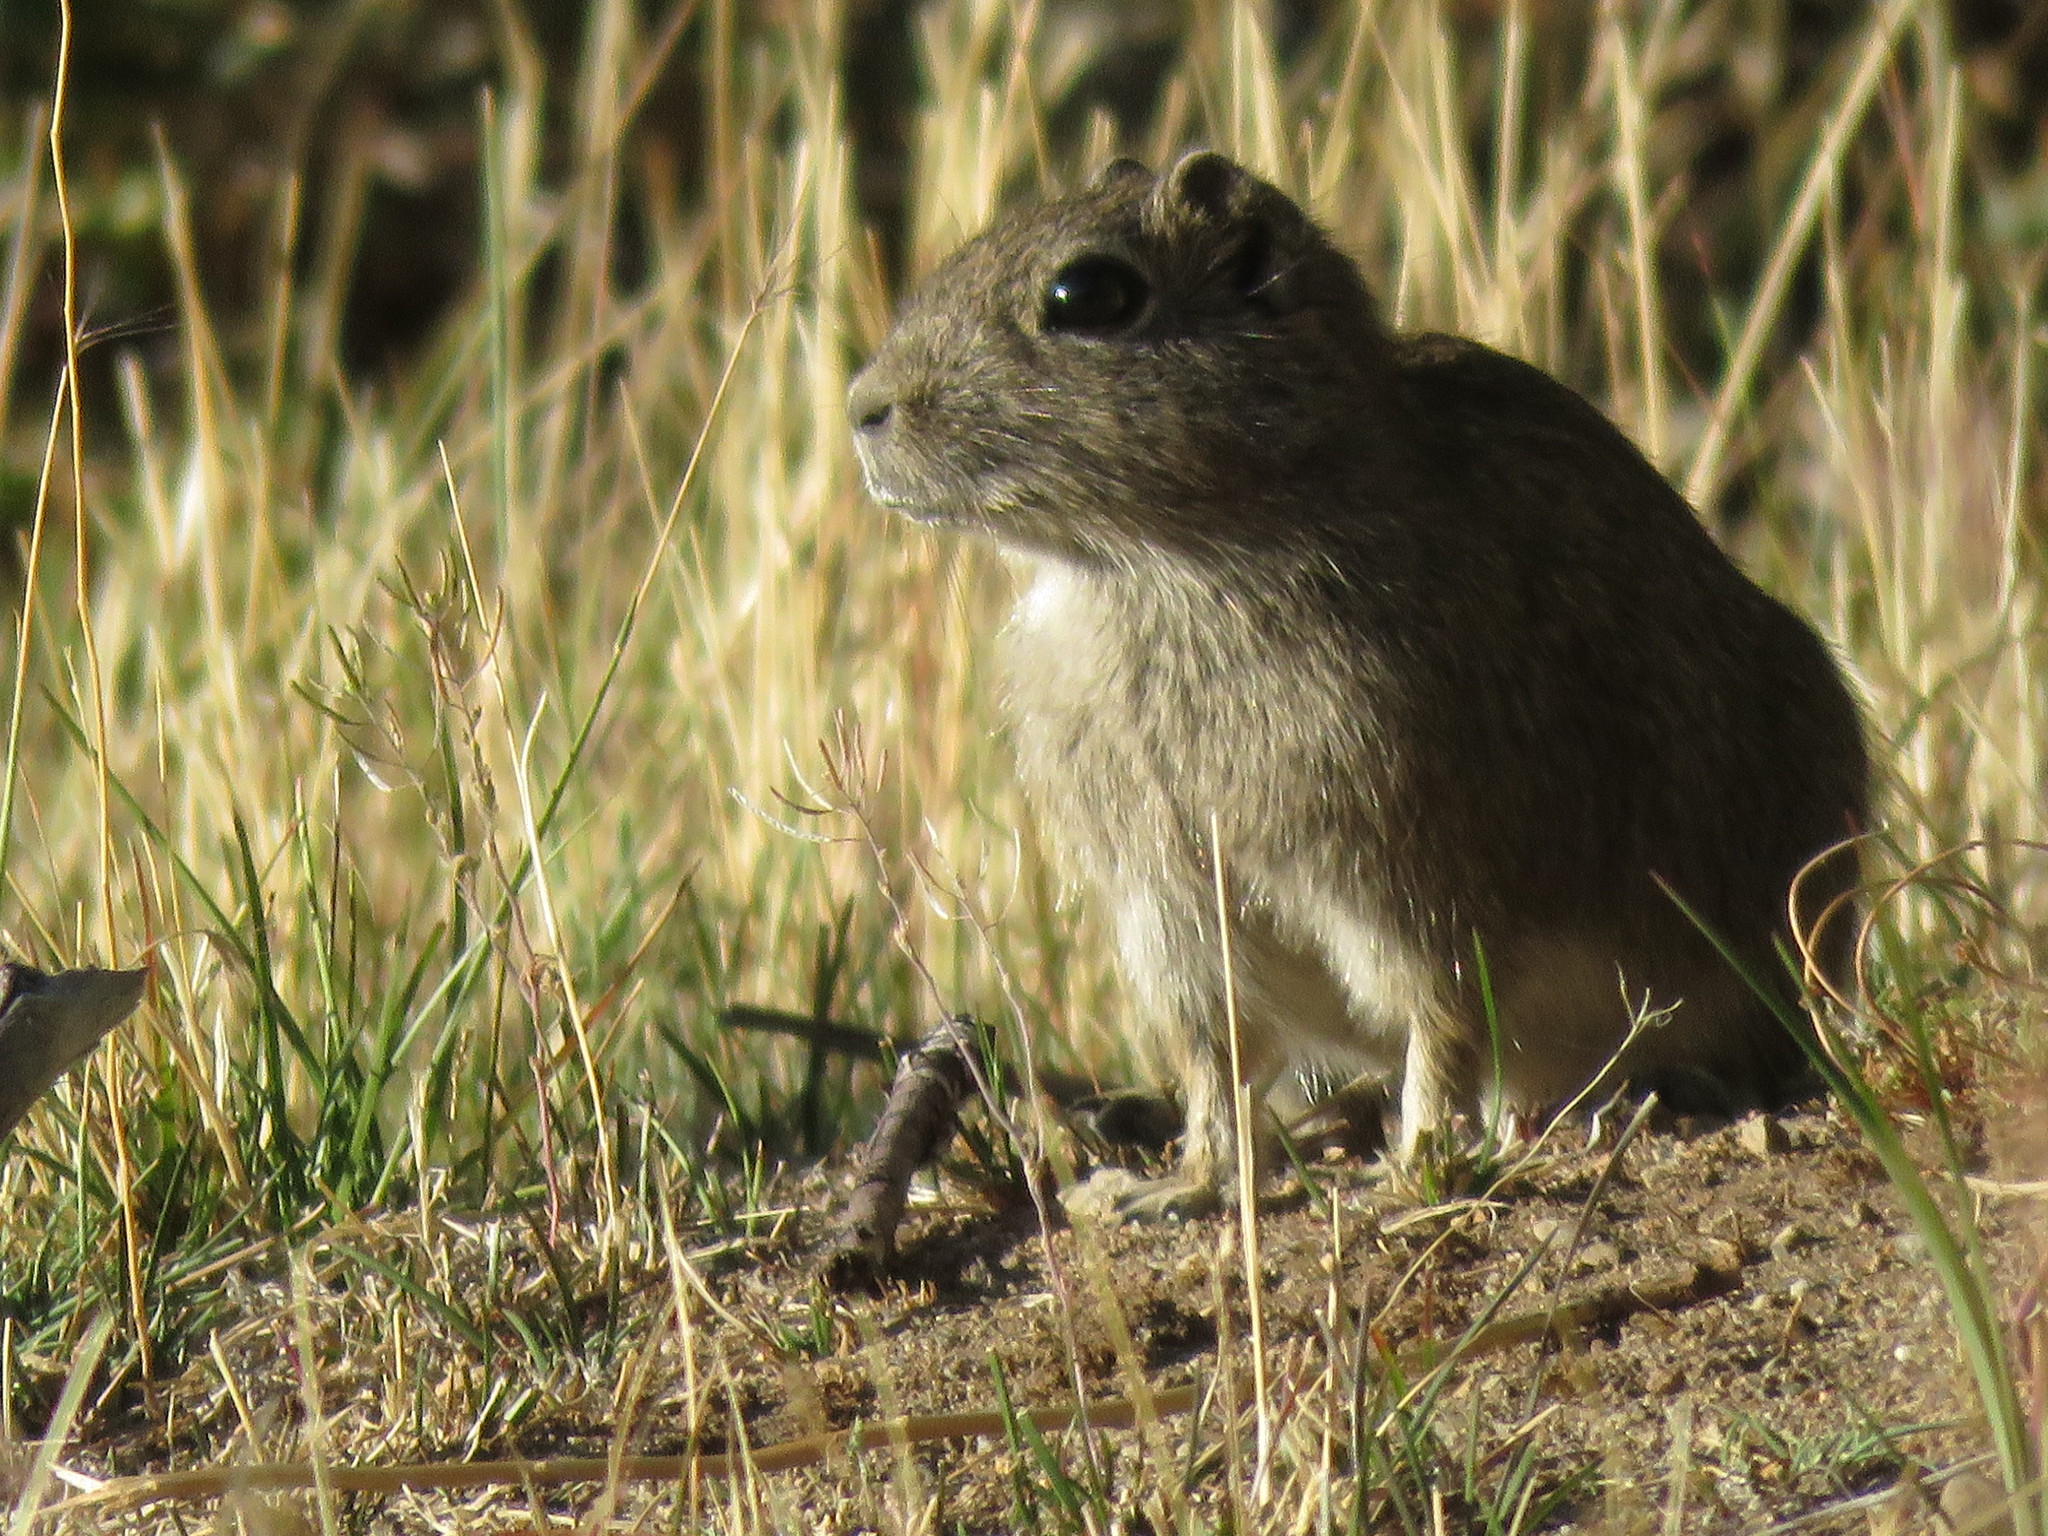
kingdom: Animalia
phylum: Chordata
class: Mammalia
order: Rodentia
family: Caviidae
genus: Microcavia
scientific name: Microcavia australis
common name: Southern mountain cavy
